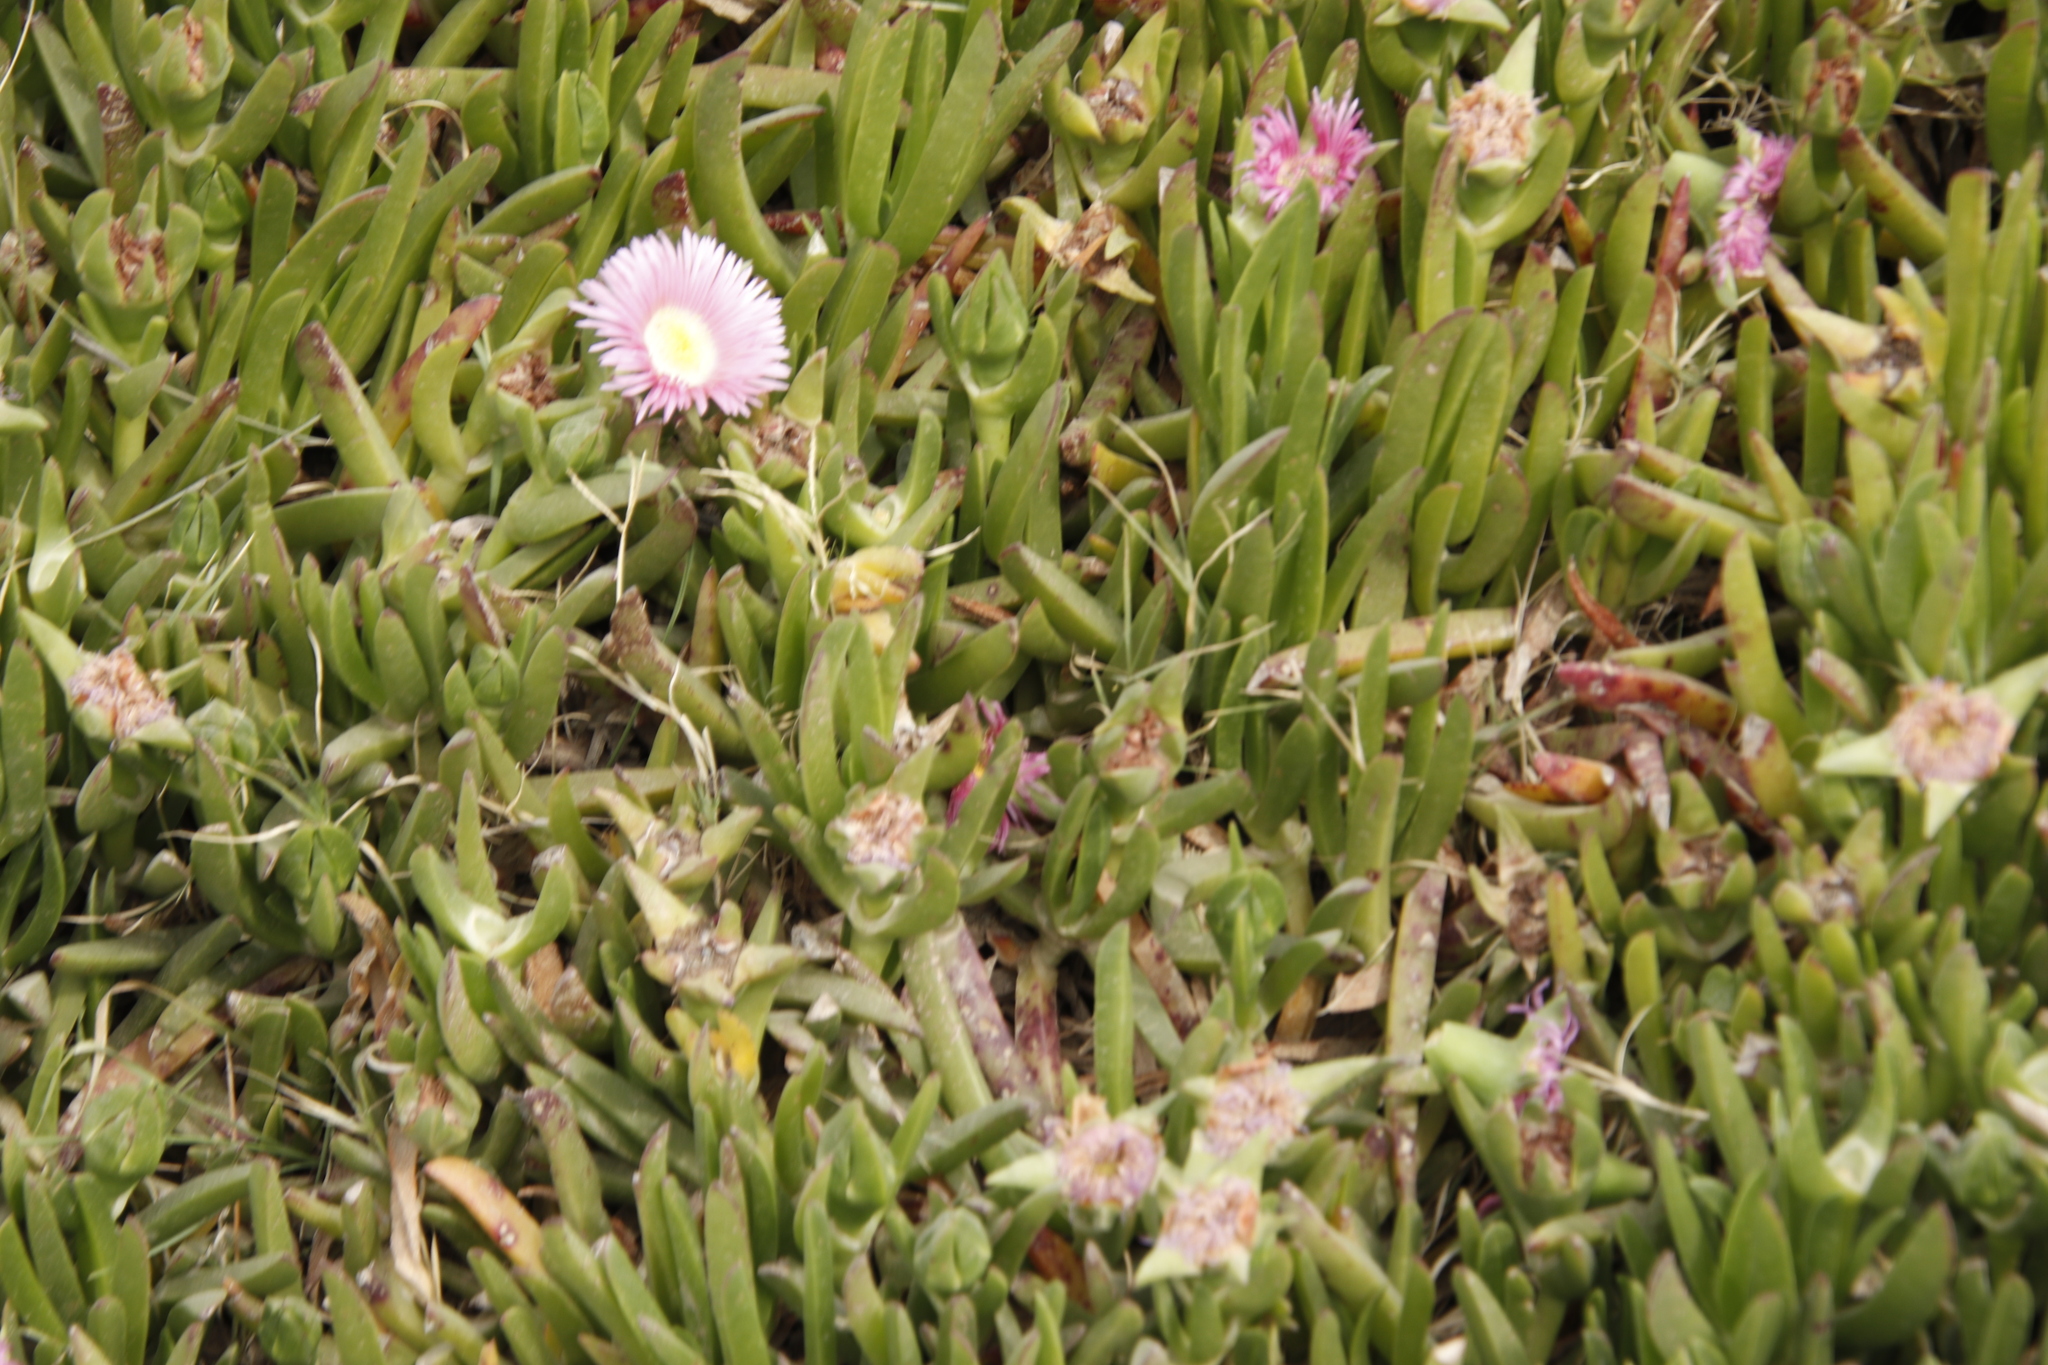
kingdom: Plantae
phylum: Tracheophyta
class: Magnoliopsida
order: Caryophyllales
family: Aizoaceae
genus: Carpobrotus
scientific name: Carpobrotus mellei
